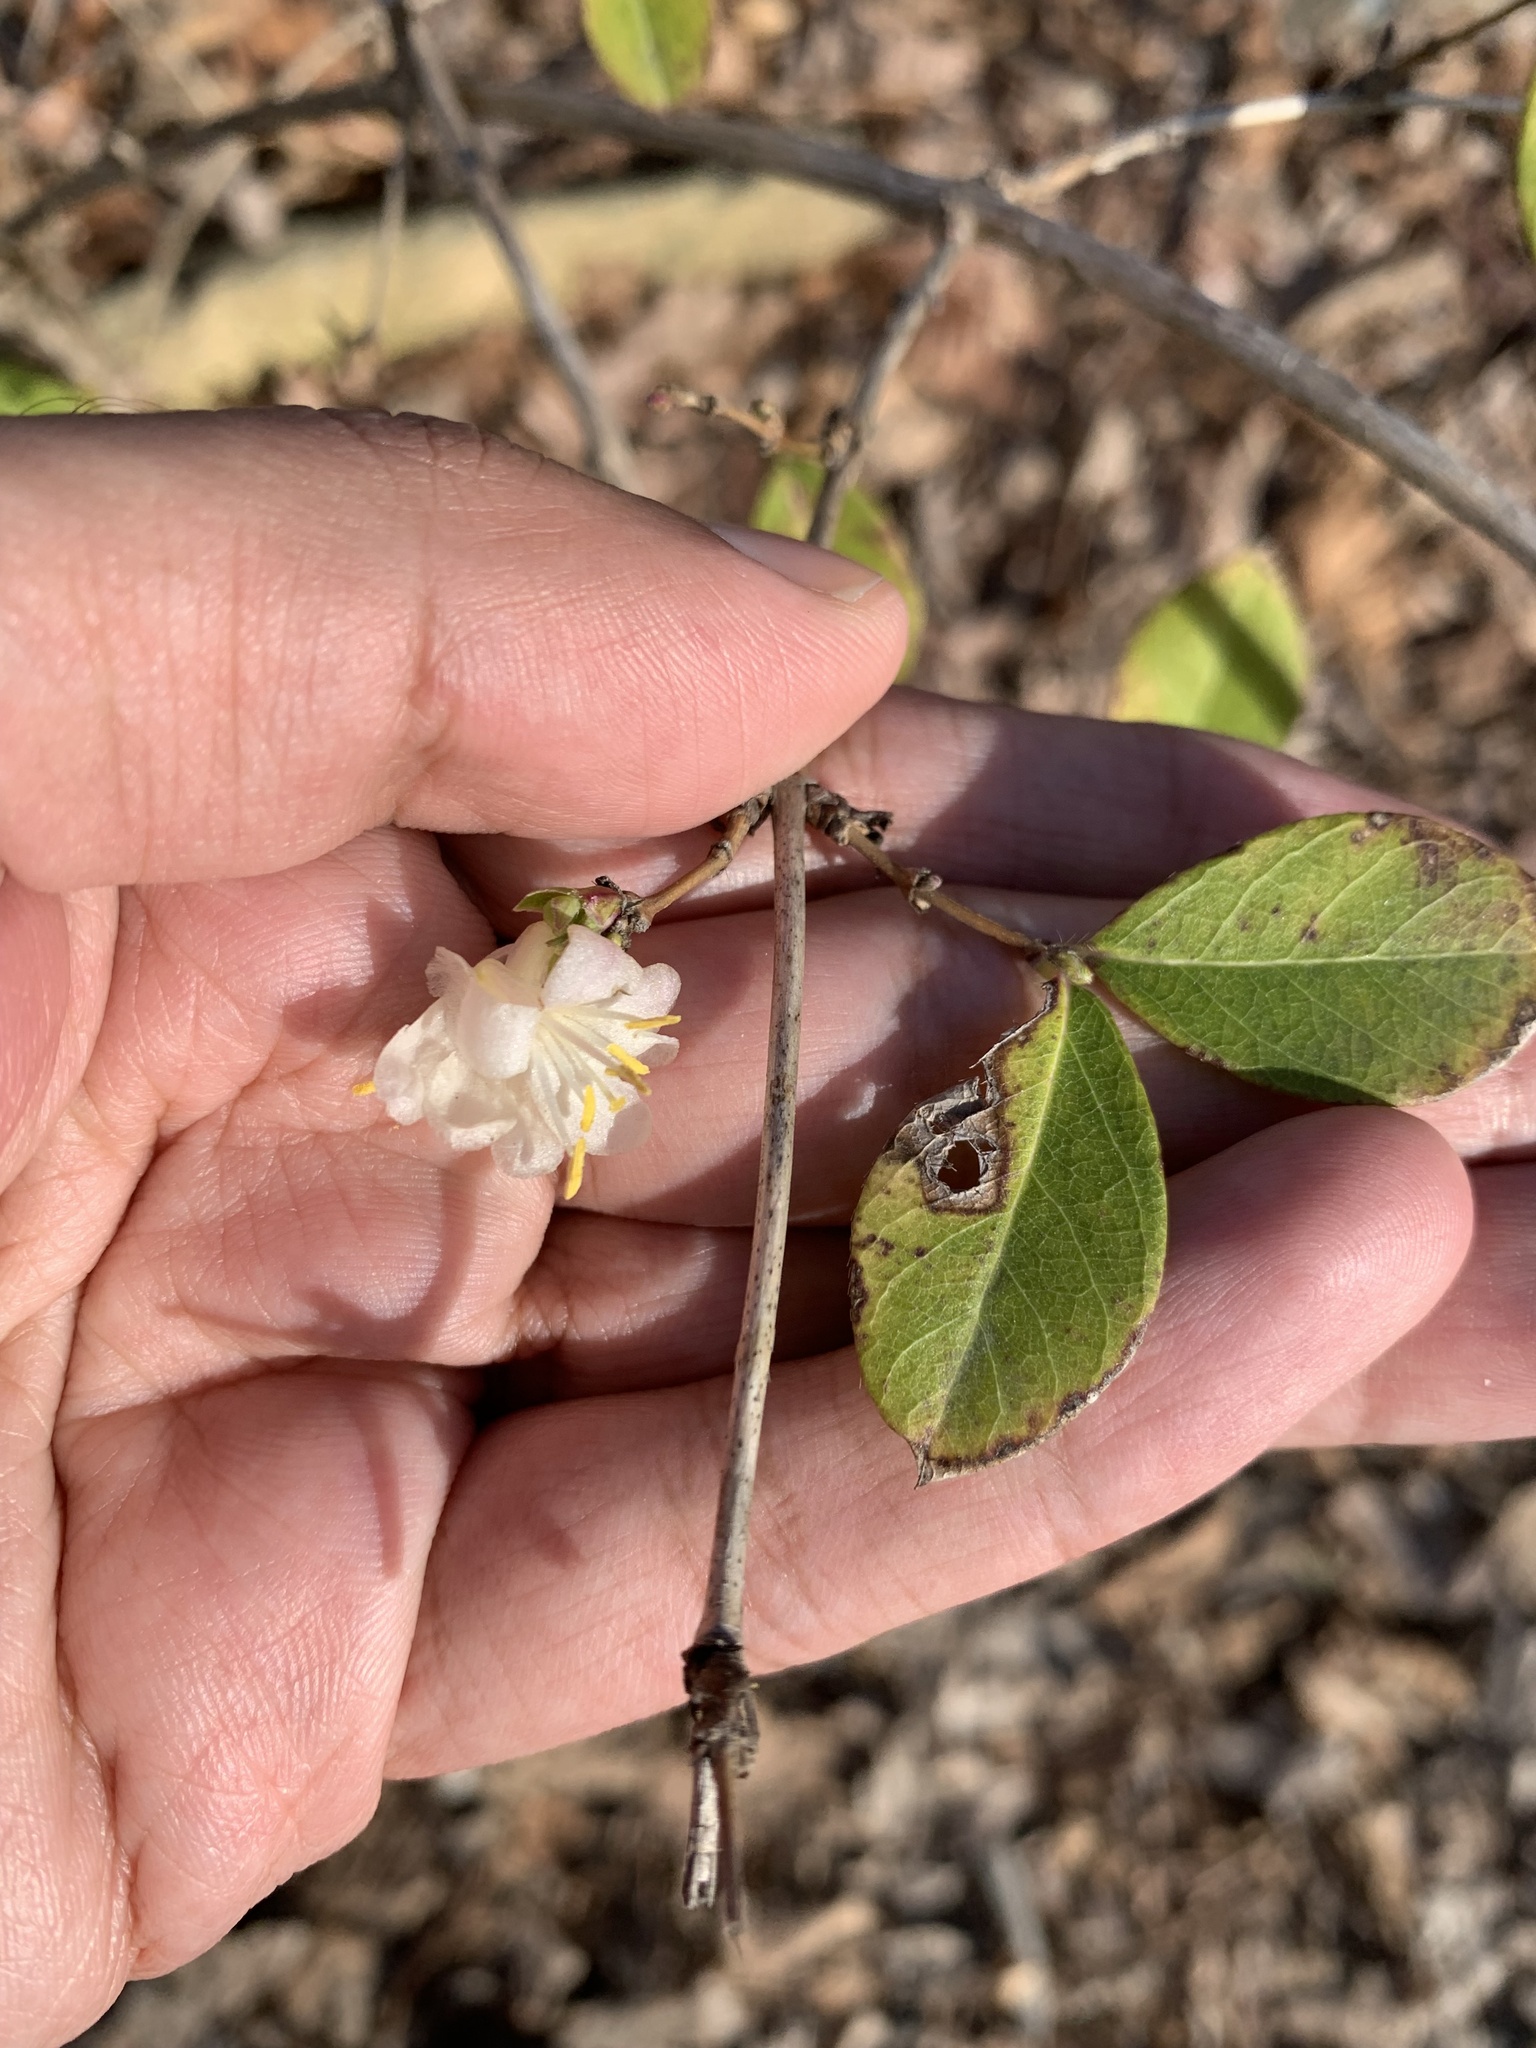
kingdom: Plantae
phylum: Tracheophyta
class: Magnoliopsida
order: Dipsacales
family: Caprifoliaceae
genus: Lonicera
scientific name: Lonicera fragrantissima
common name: Fragrant honeysuckle
